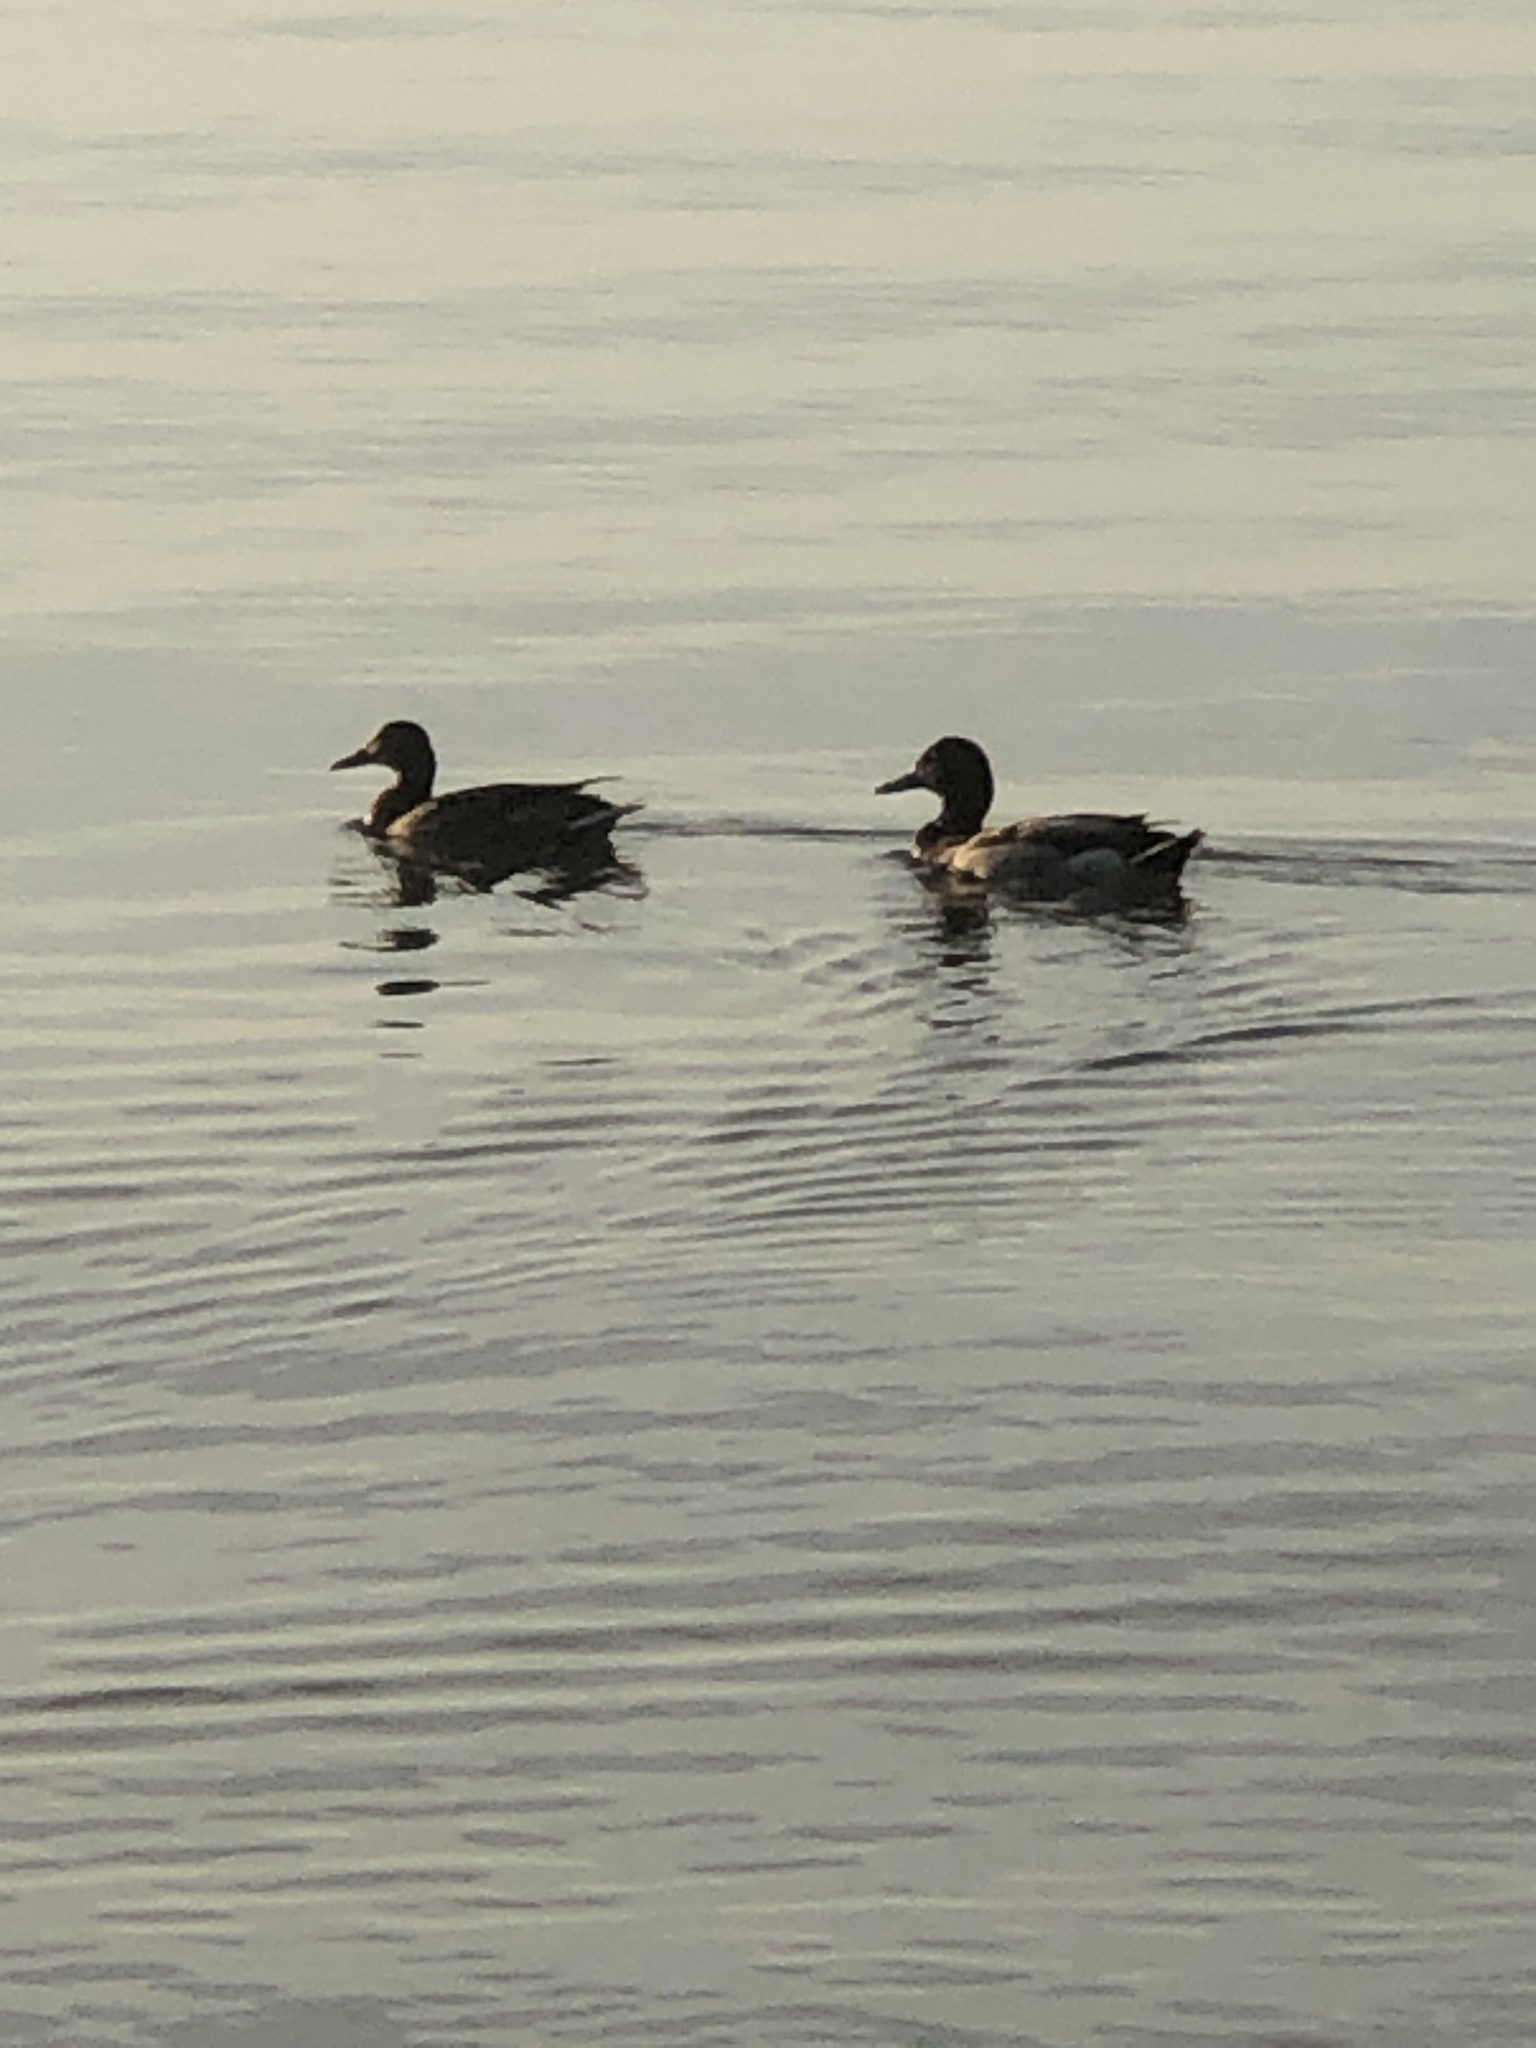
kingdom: Animalia
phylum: Chordata
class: Aves
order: Anseriformes
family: Anatidae
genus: Anas
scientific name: Anas platyrhynchos
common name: Mallard
